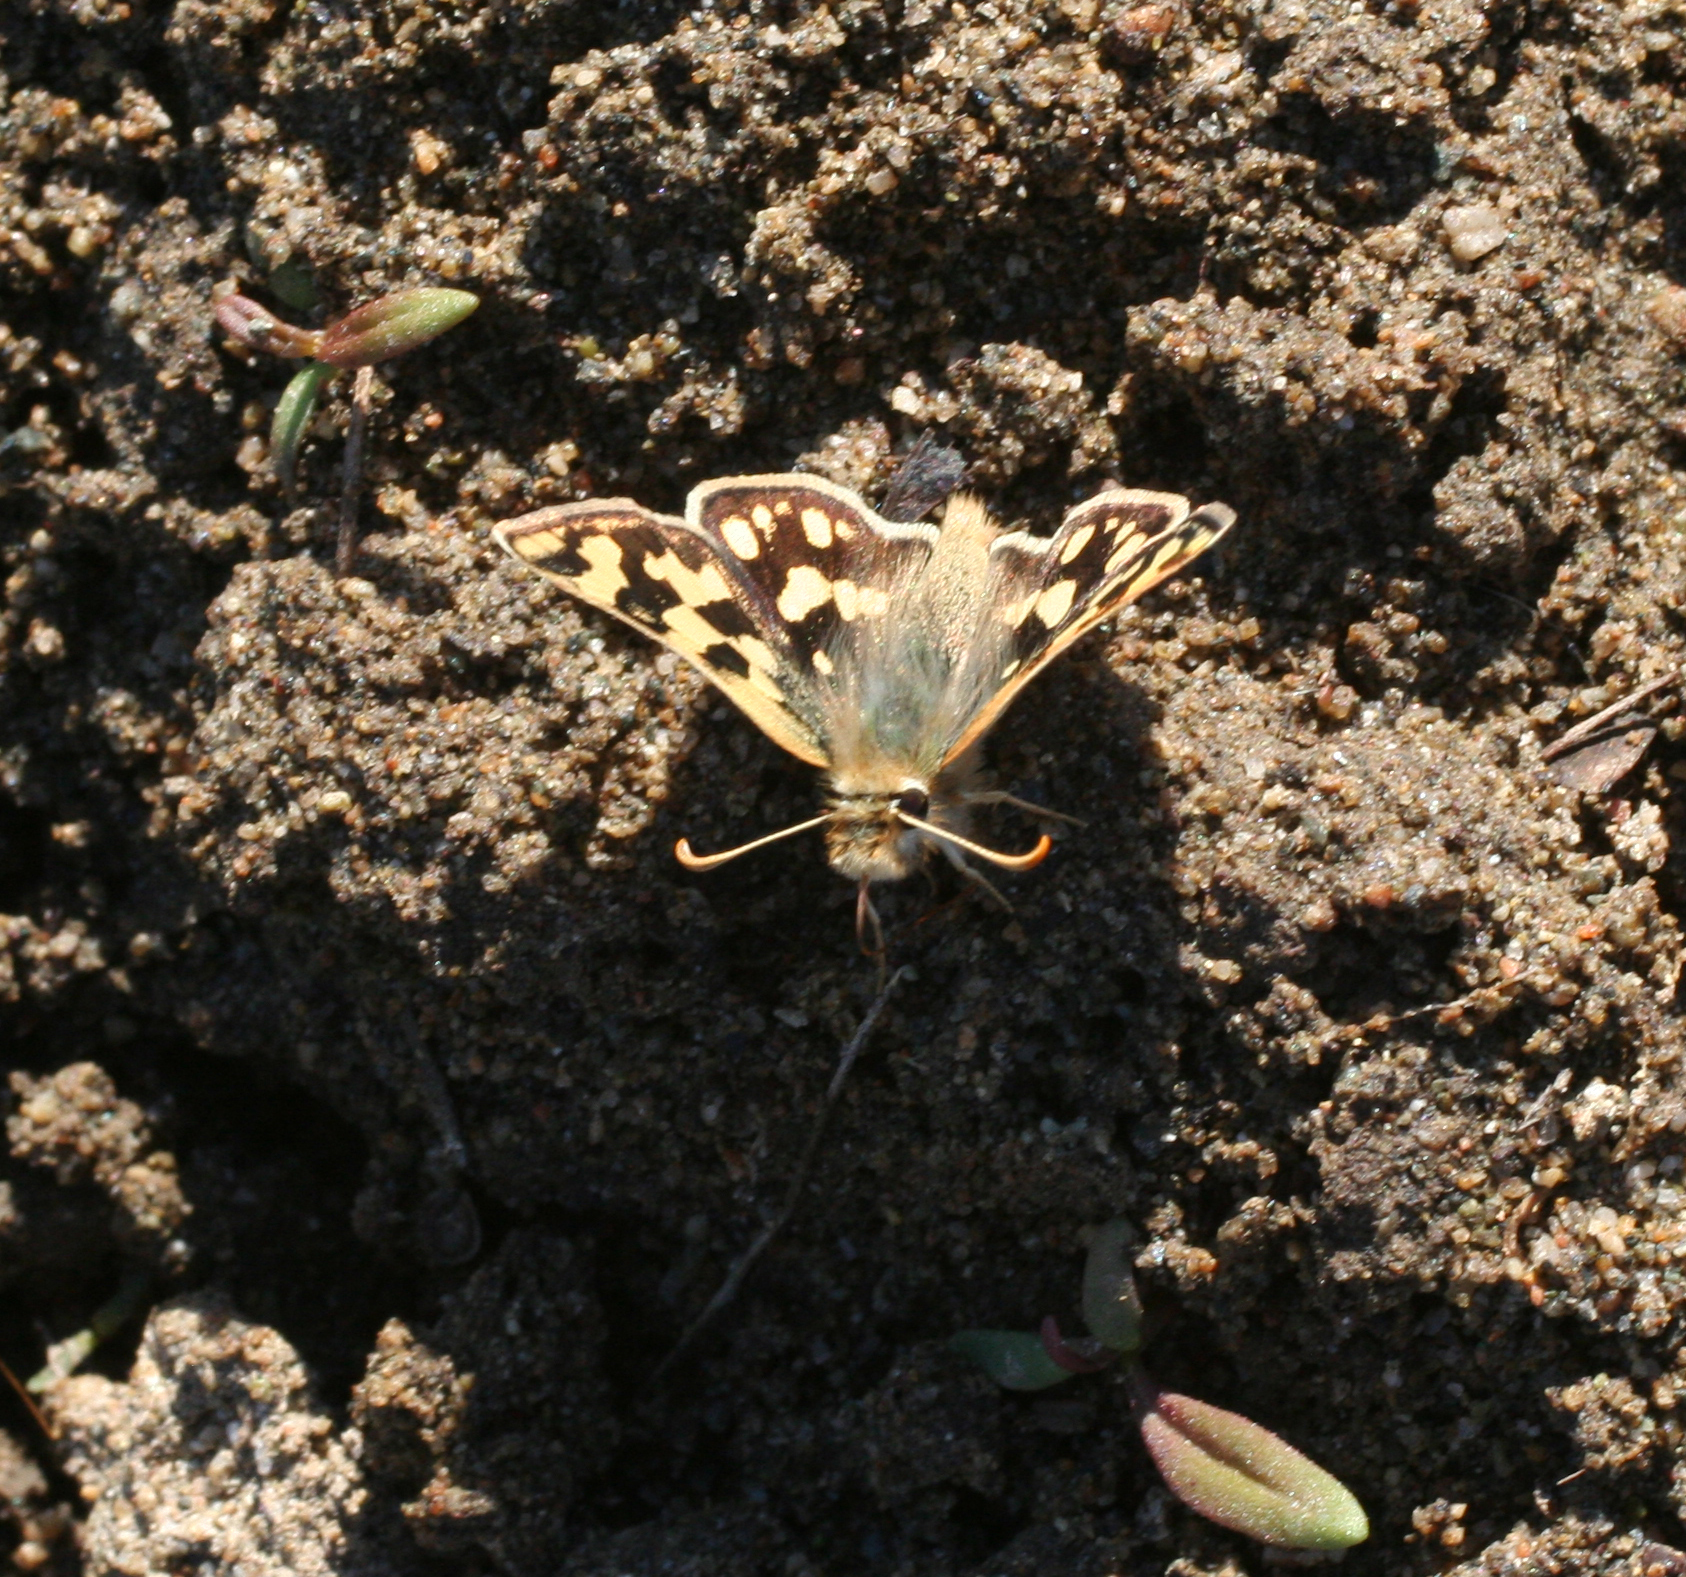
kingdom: Animalia
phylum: Arthropoda
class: Insecta
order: Lepidoptera
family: Hesperiidae
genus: Carterocephalus
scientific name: Carterocephalus argyrostigma
